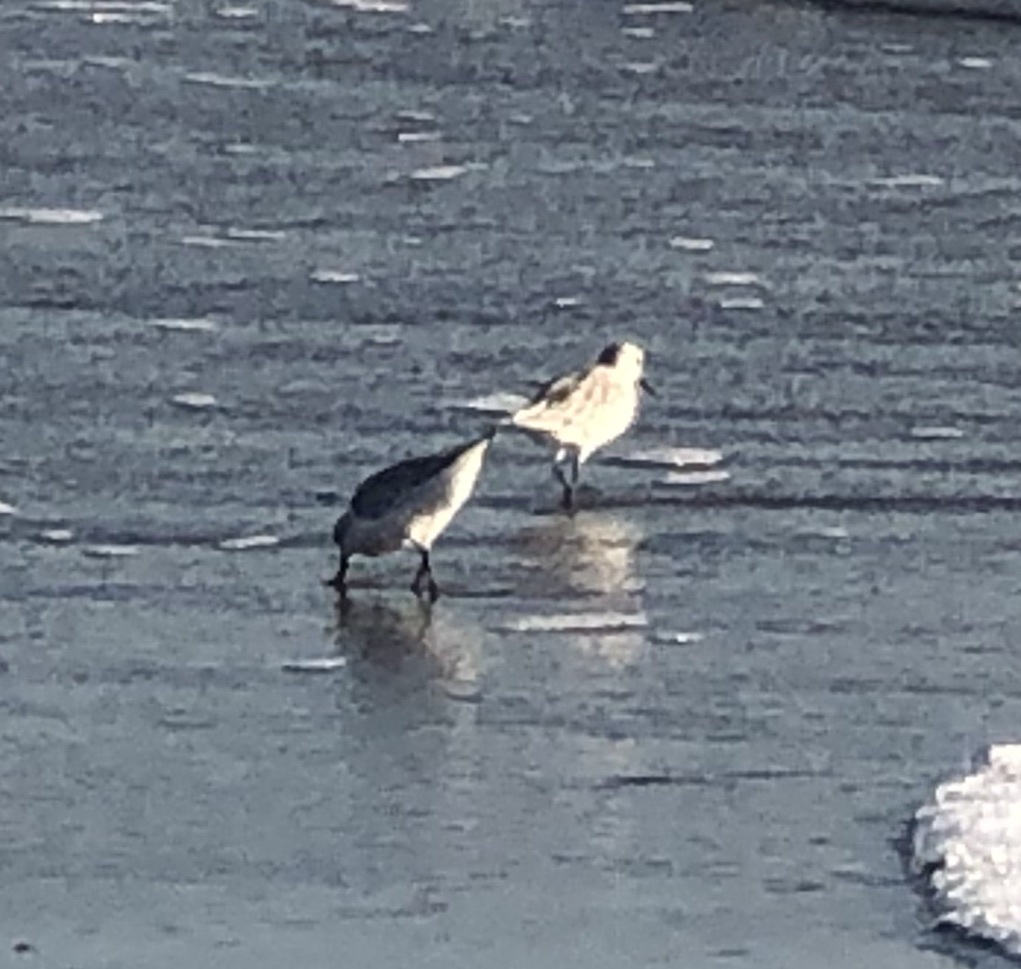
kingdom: Animalia
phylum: Chordata
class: Aves
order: Charadriiformes
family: Scolopacidae
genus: Calidris
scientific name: Calidris alba
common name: Sanderling
